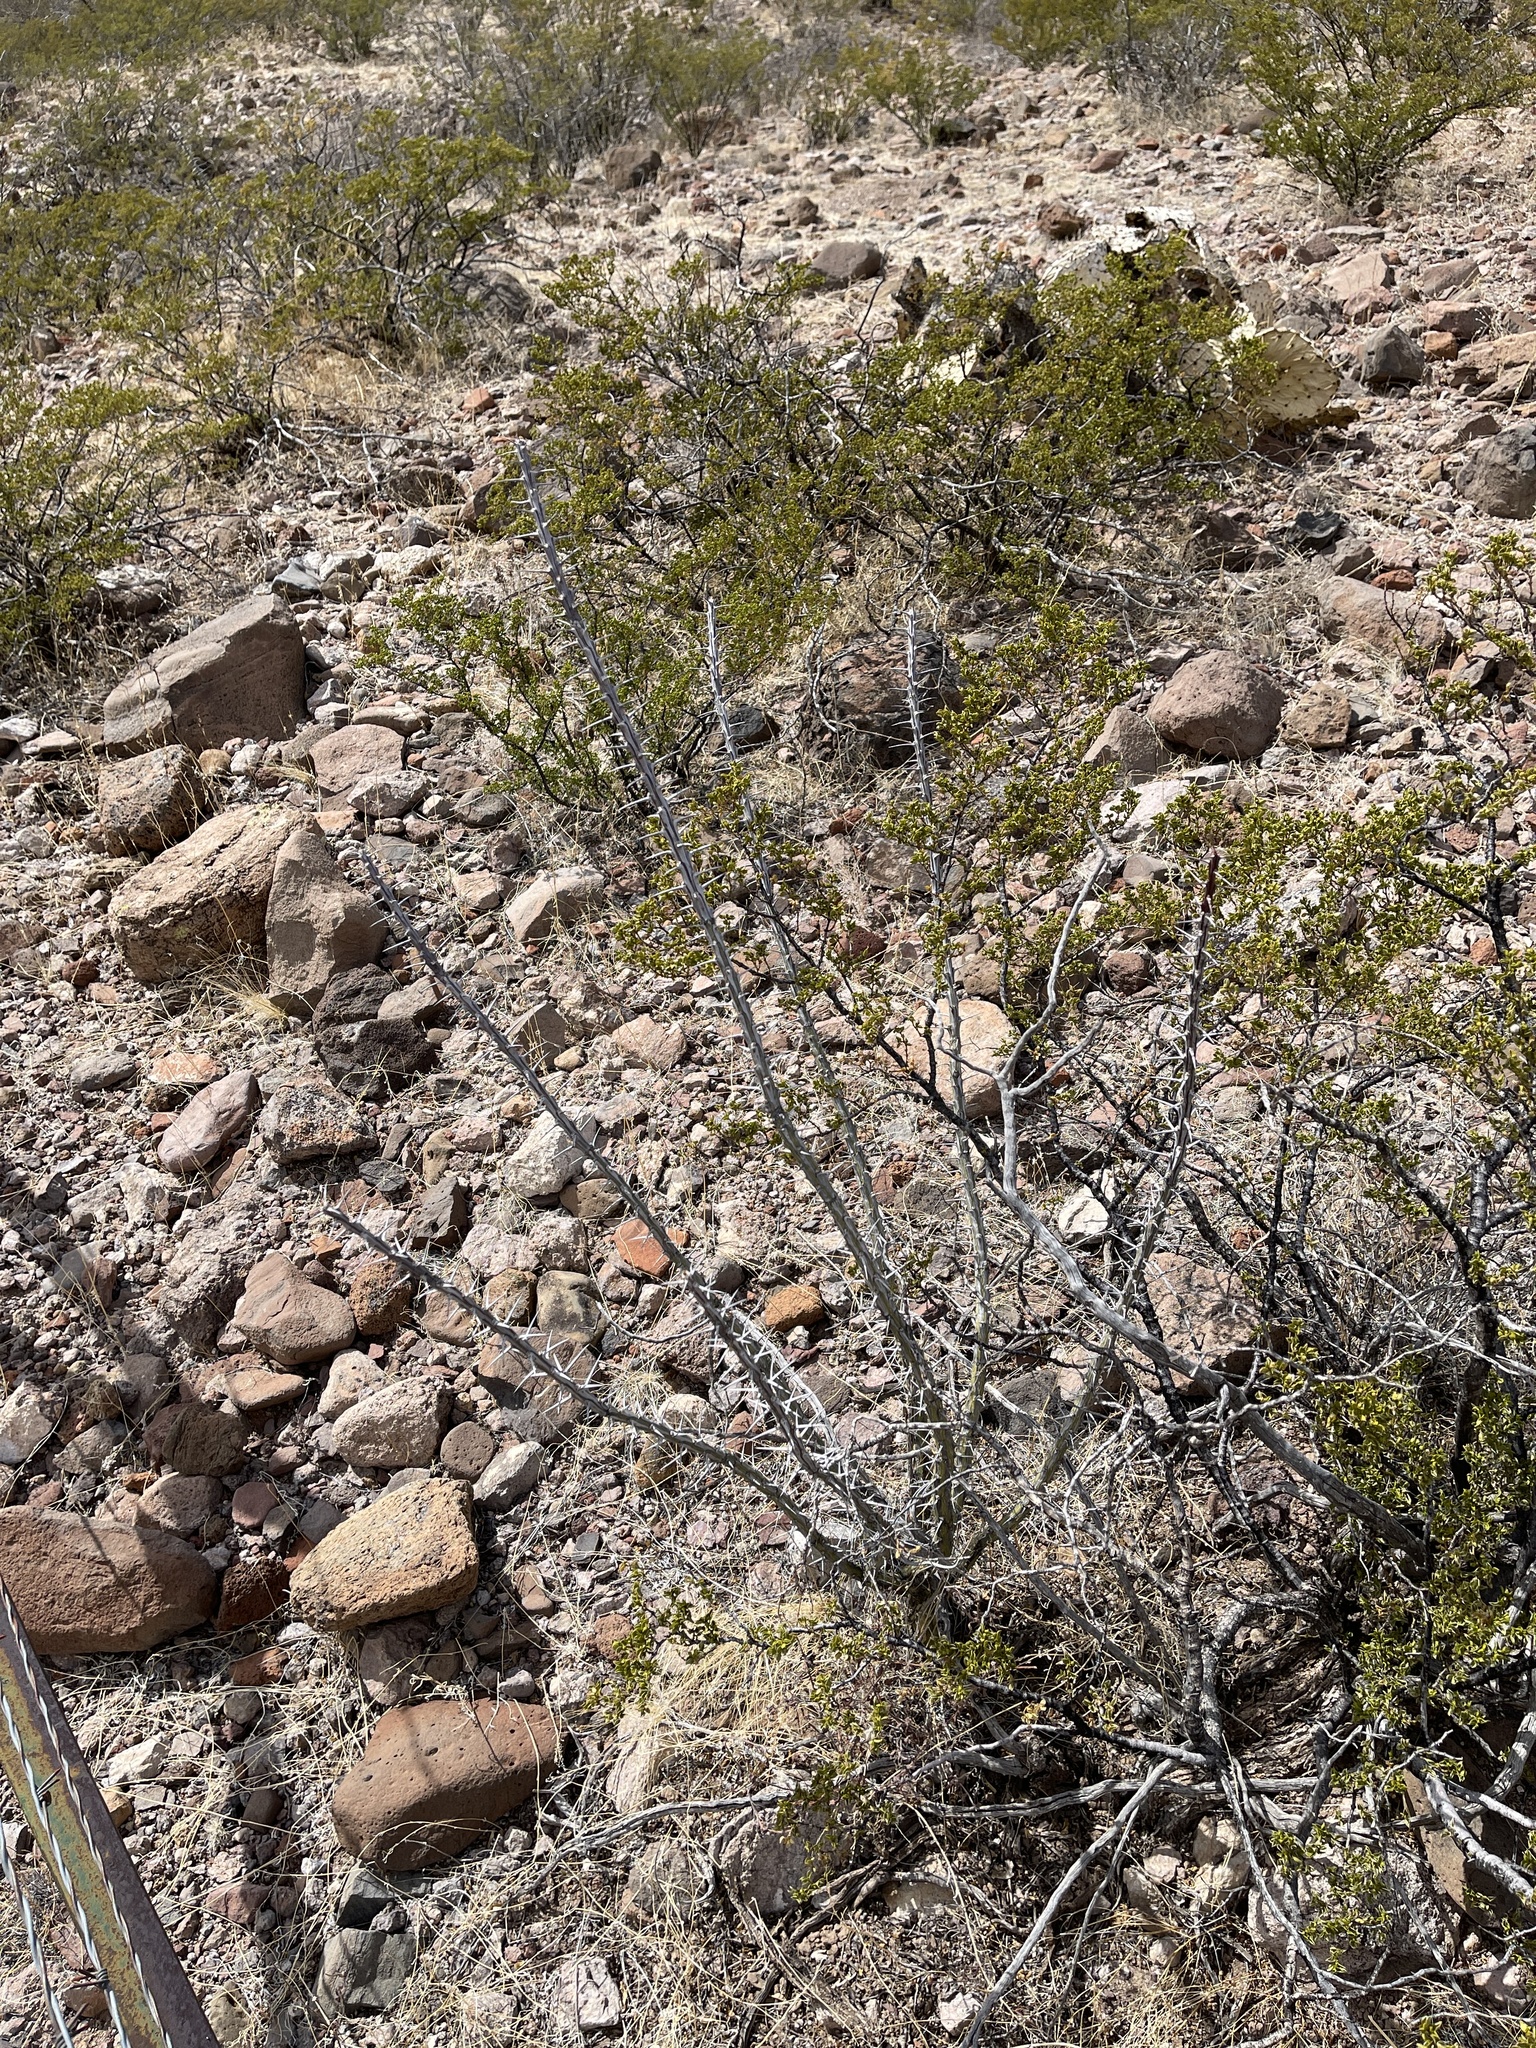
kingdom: Plantae
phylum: Tracheophyta
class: Magnoliopsida
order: Ericales
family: Fouquieriaceae
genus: Fouquieria
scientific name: Fouquieria splendens
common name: Vine-cactus
